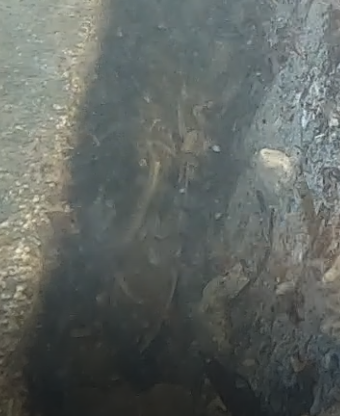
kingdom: Animalia
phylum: Arthropoda
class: Malacostraca
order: Decapoda
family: Portunidae
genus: Callinectes
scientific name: Callinectes sapidus
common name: Blue crab
